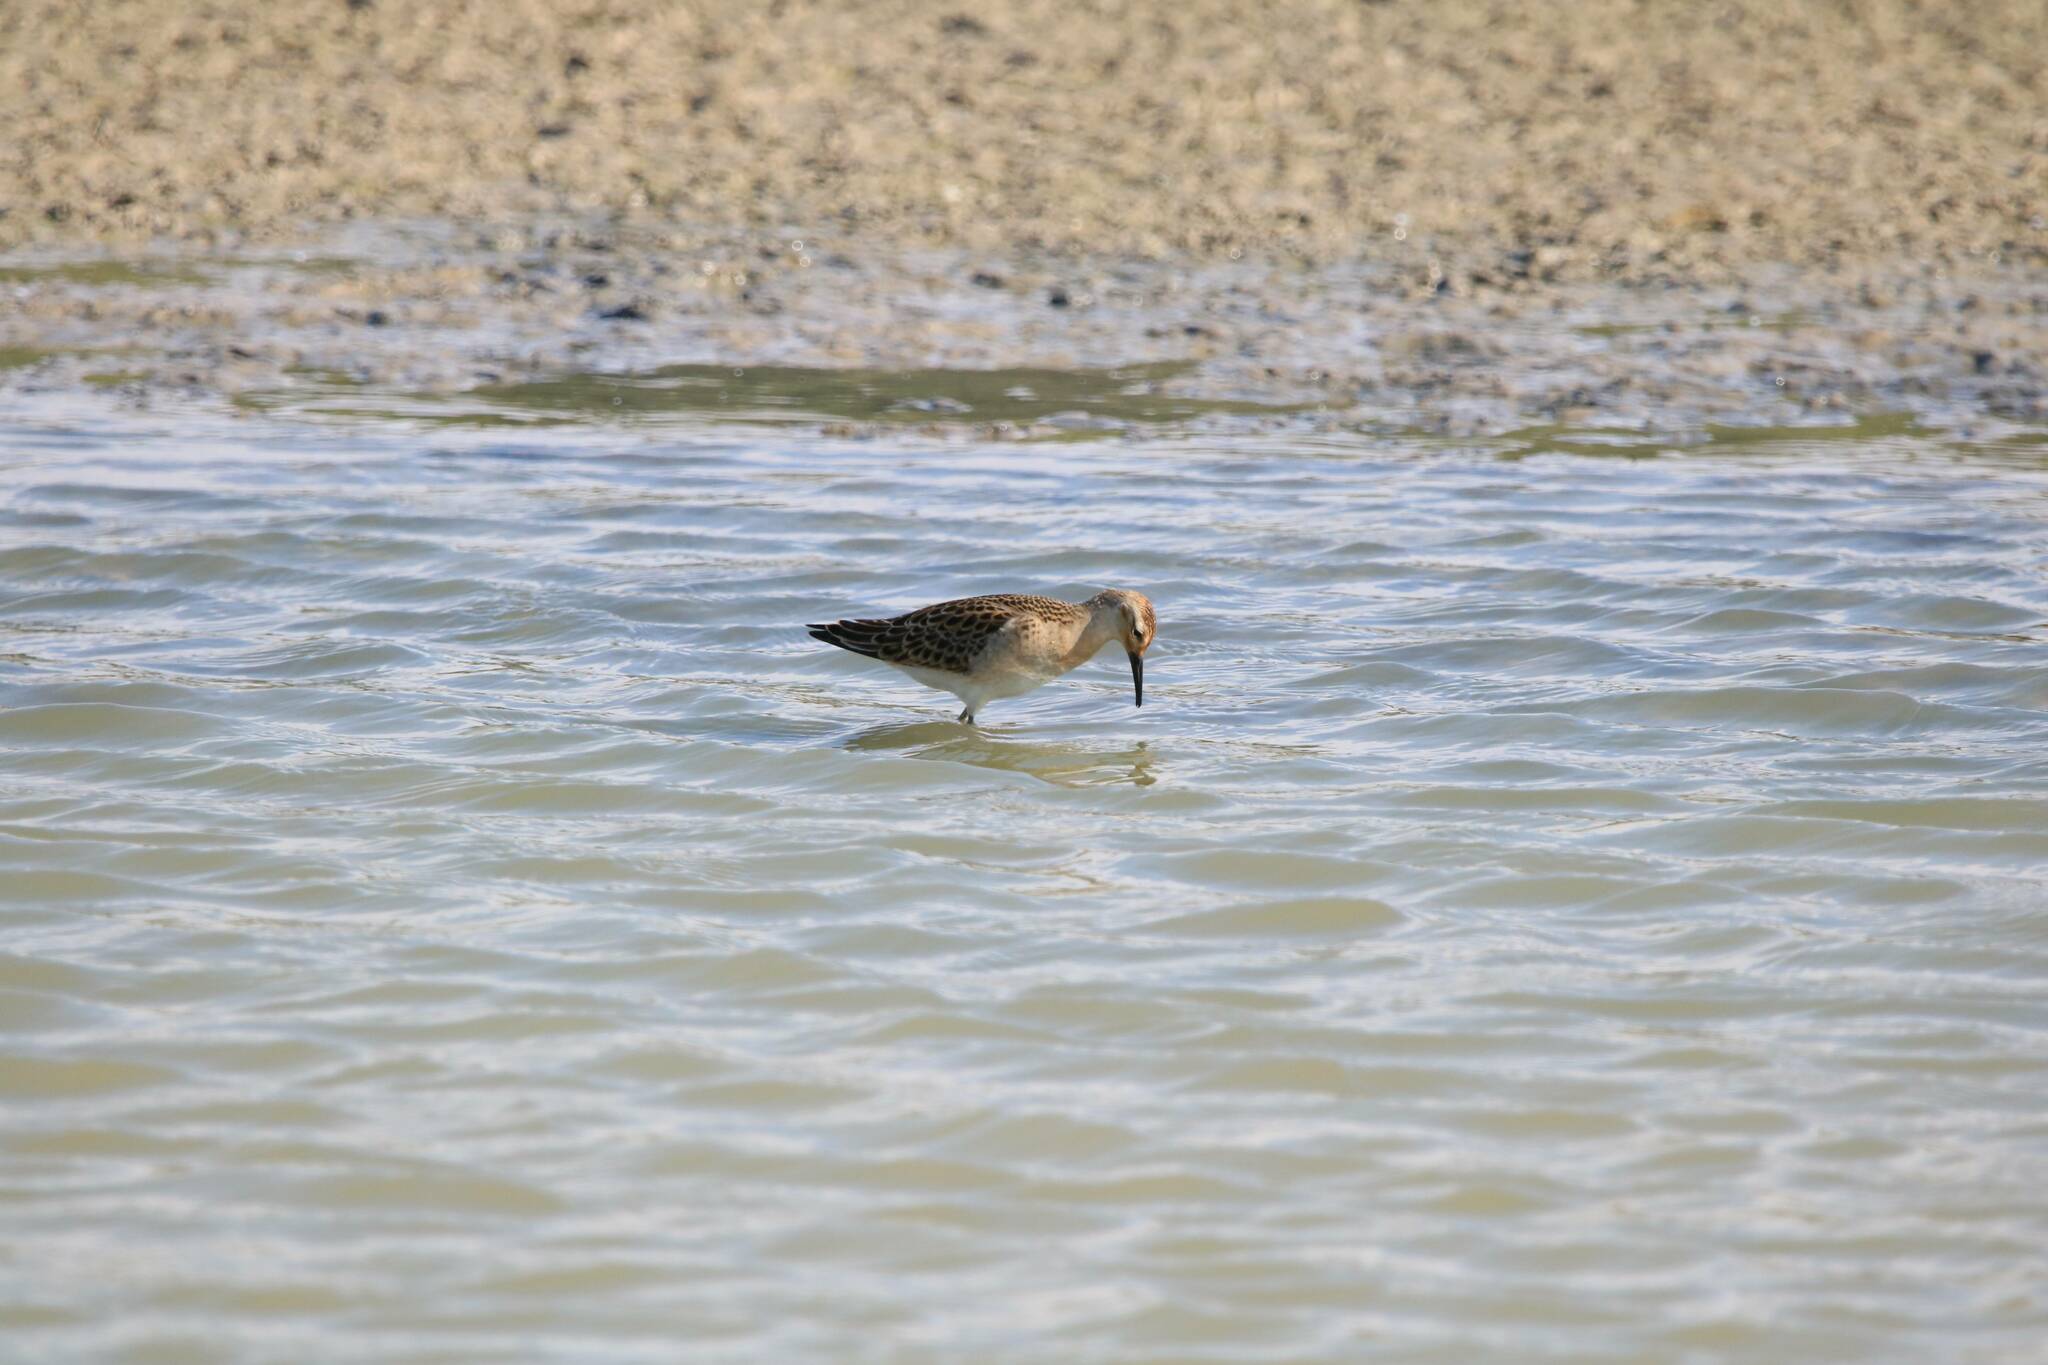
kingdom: Animalia
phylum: Chordata
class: Aves
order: Charadriiformes
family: Scolopacidae
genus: Calidris
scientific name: Calidris pugnax
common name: Ruff
